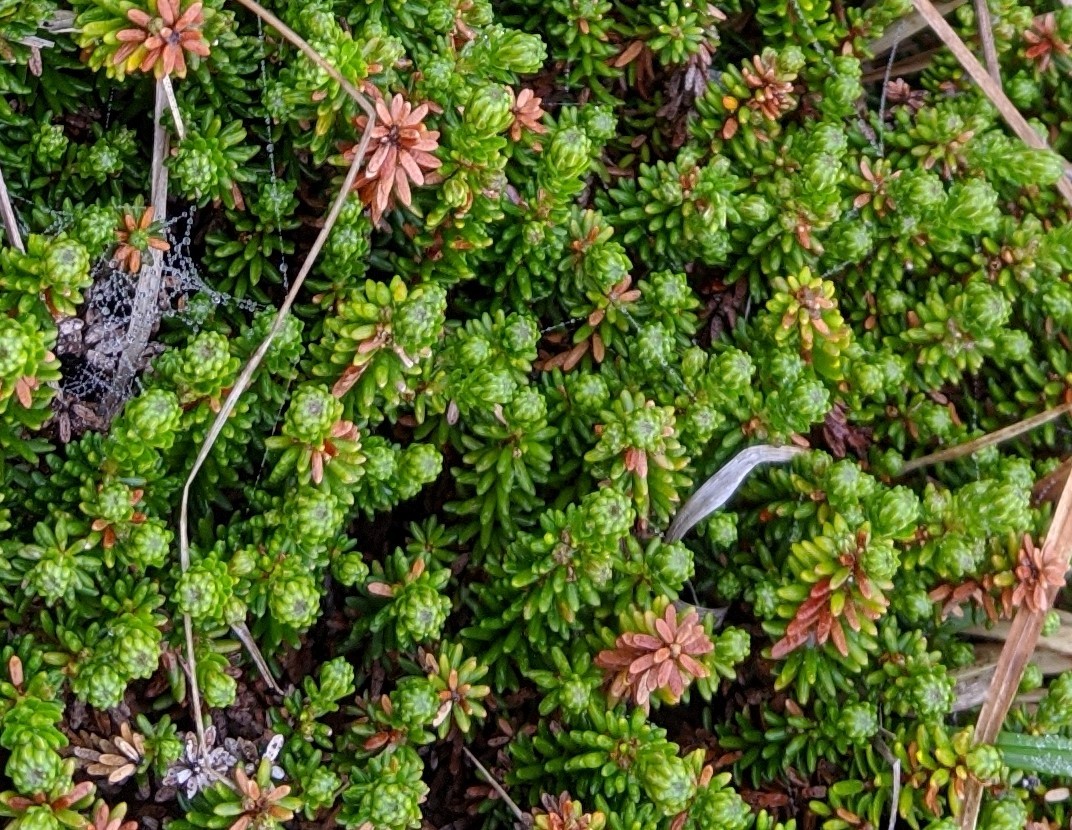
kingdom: Plantae
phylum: Tracheophyta
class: Magnoliopsida
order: Ericales
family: Ericaceae
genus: Empetrum
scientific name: Empetrum nigrum
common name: Black crowberry
